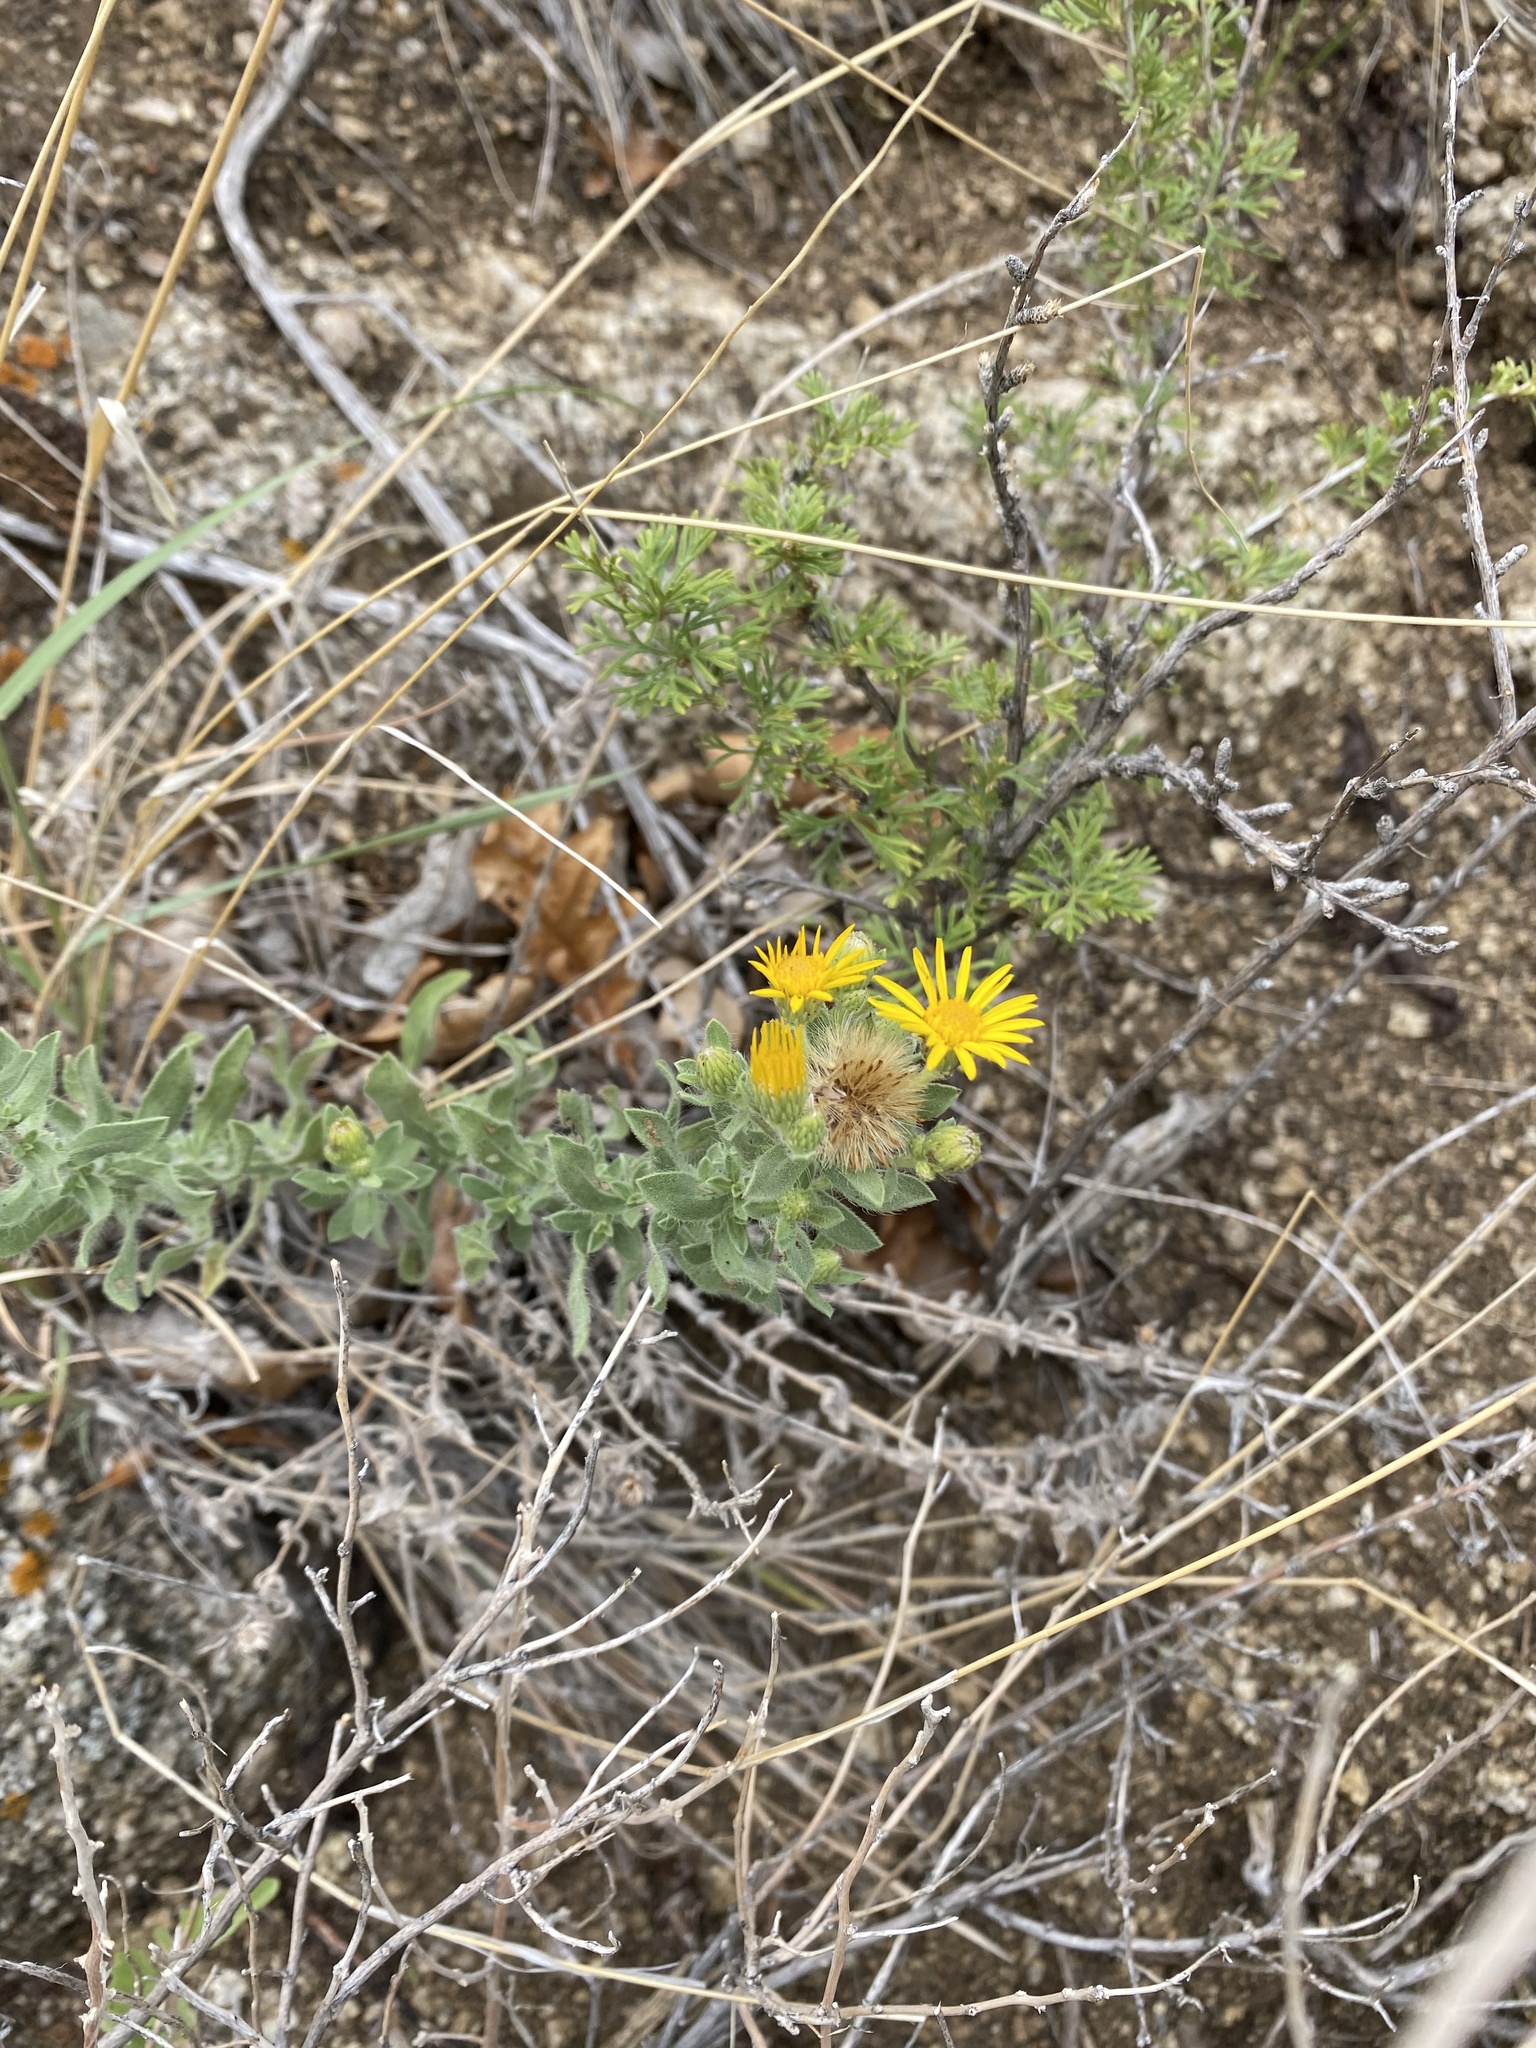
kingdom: Plantae
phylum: Tracheophyta
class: Magnoliopsida
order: Asterales
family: Asteraceae
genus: Heterotheca
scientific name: Heterotheca hirsutissima
